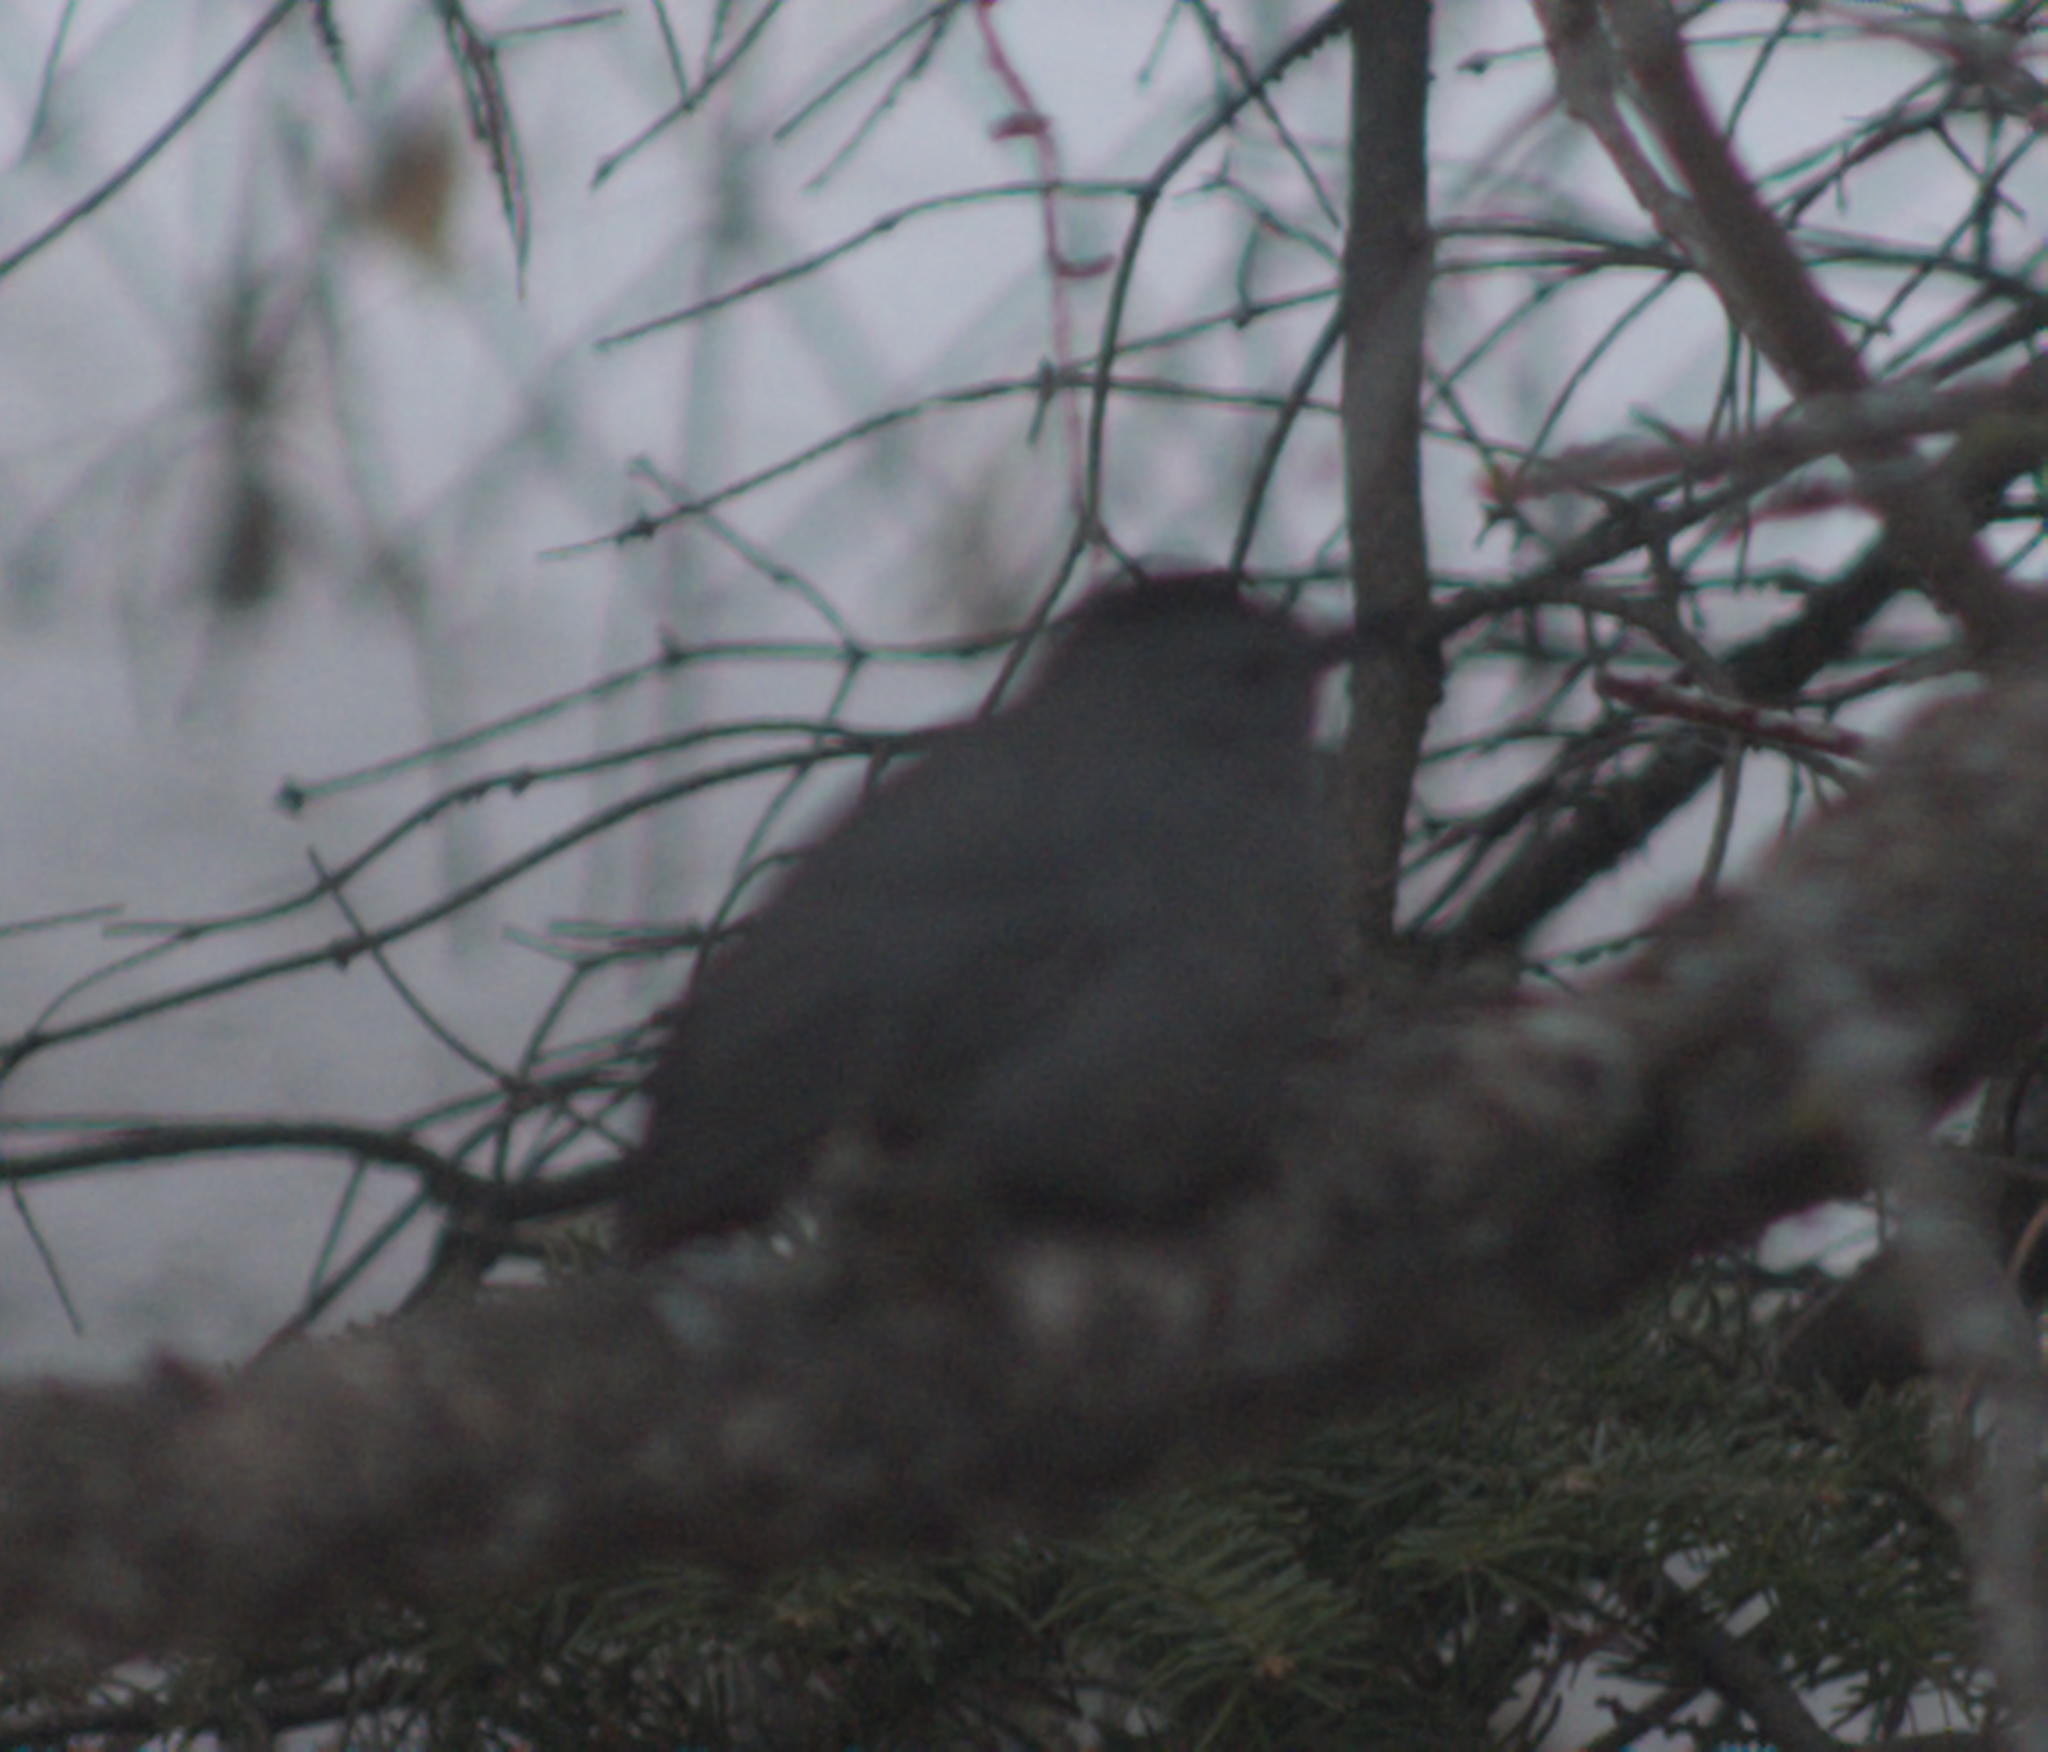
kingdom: Animalia
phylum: Chordata
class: Aves
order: Passeriformes
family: Mimidae
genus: Dumetella
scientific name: Dumetella carolinensis
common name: Gray catbird
